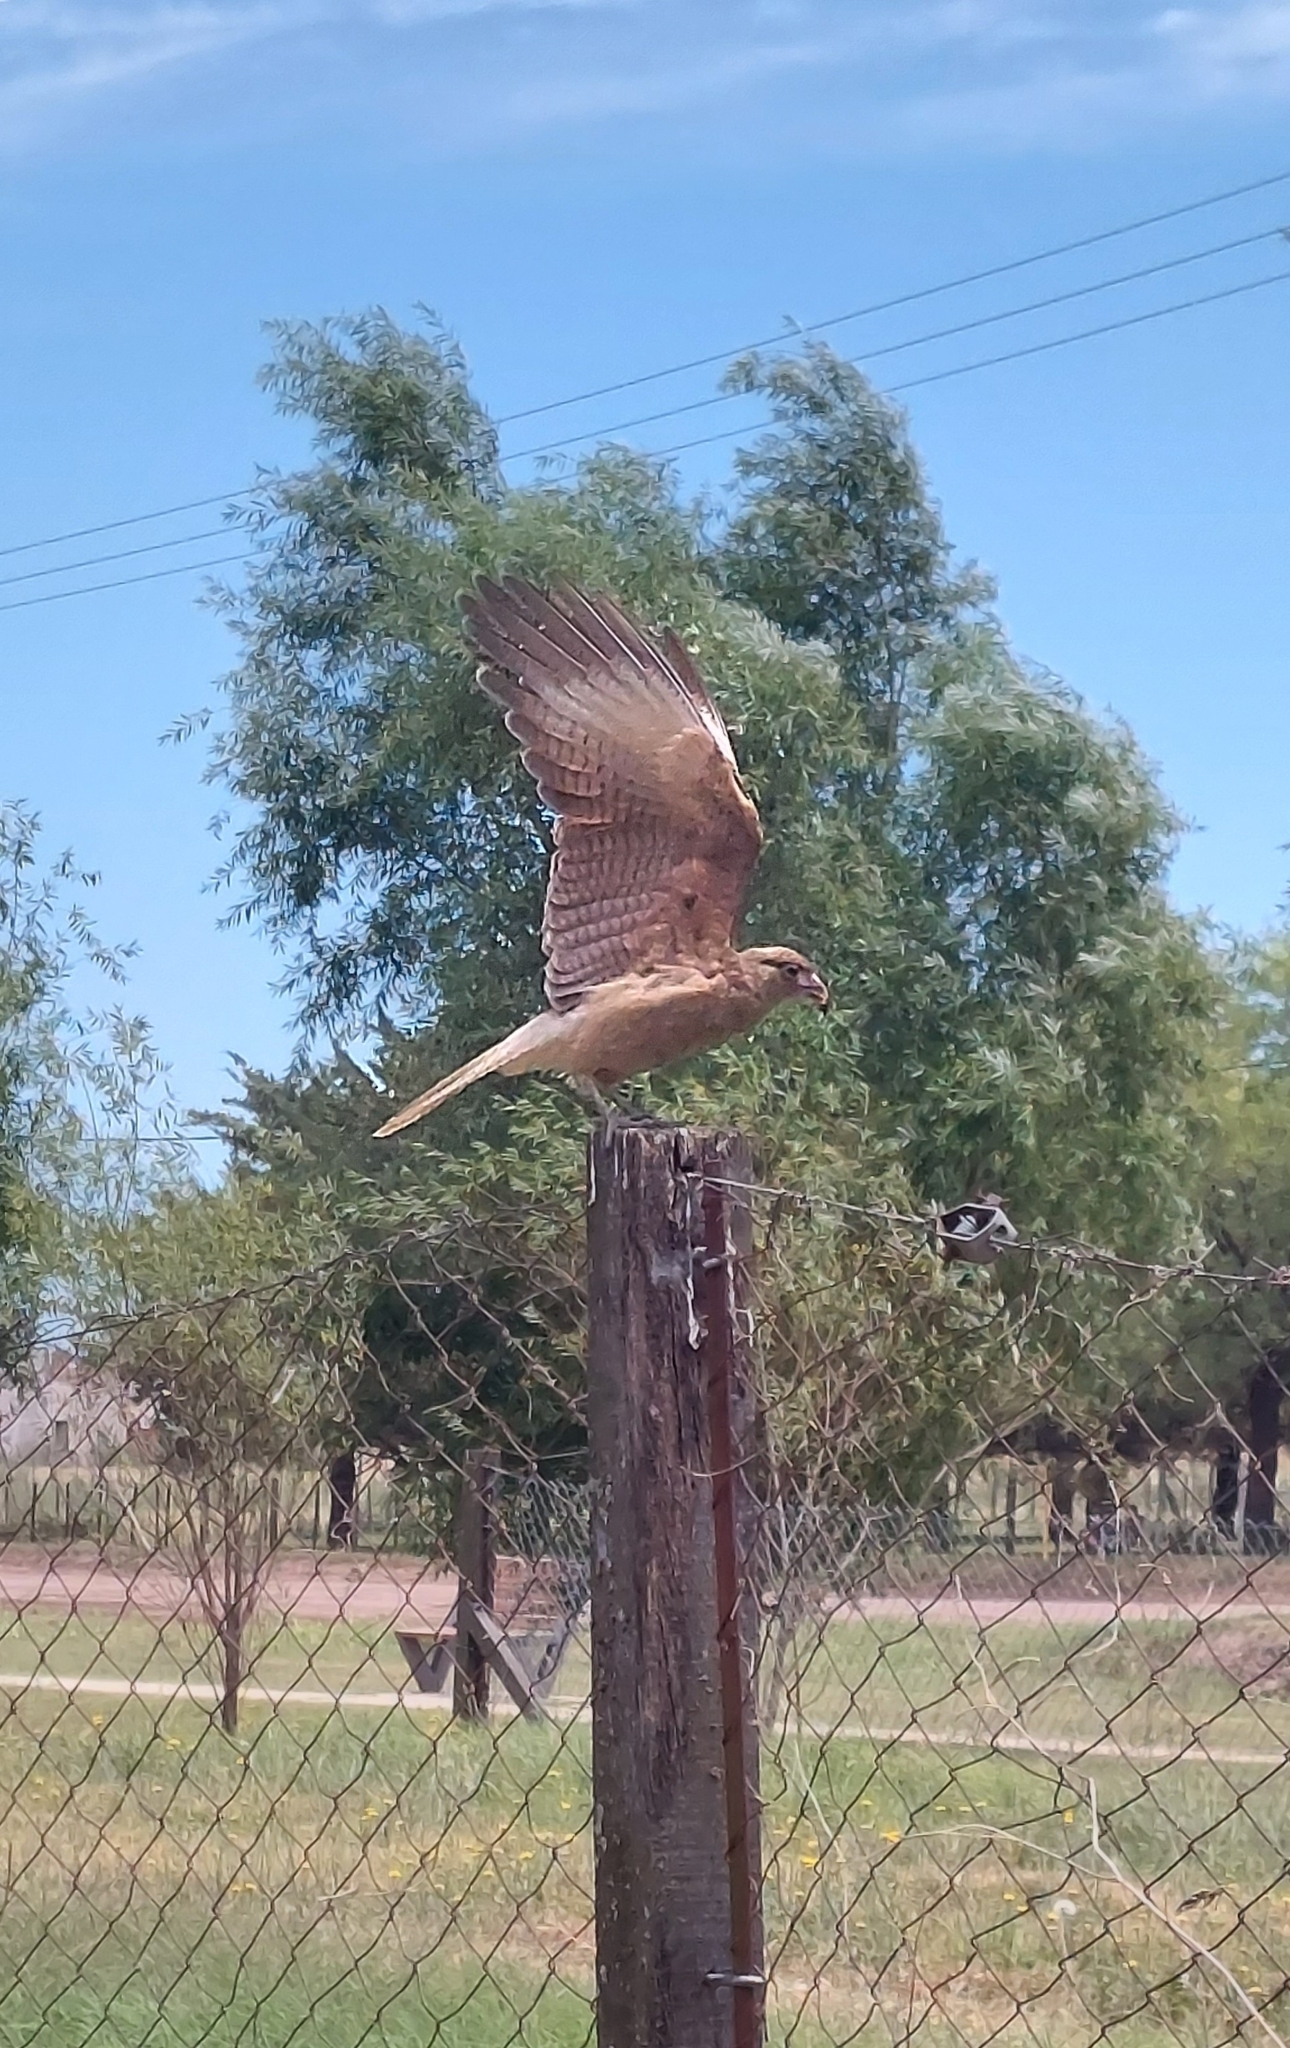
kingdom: Animalia
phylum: Chordata
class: Aves
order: Falconiformes
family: Falconidae
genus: Daptrius
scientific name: Daptrius
